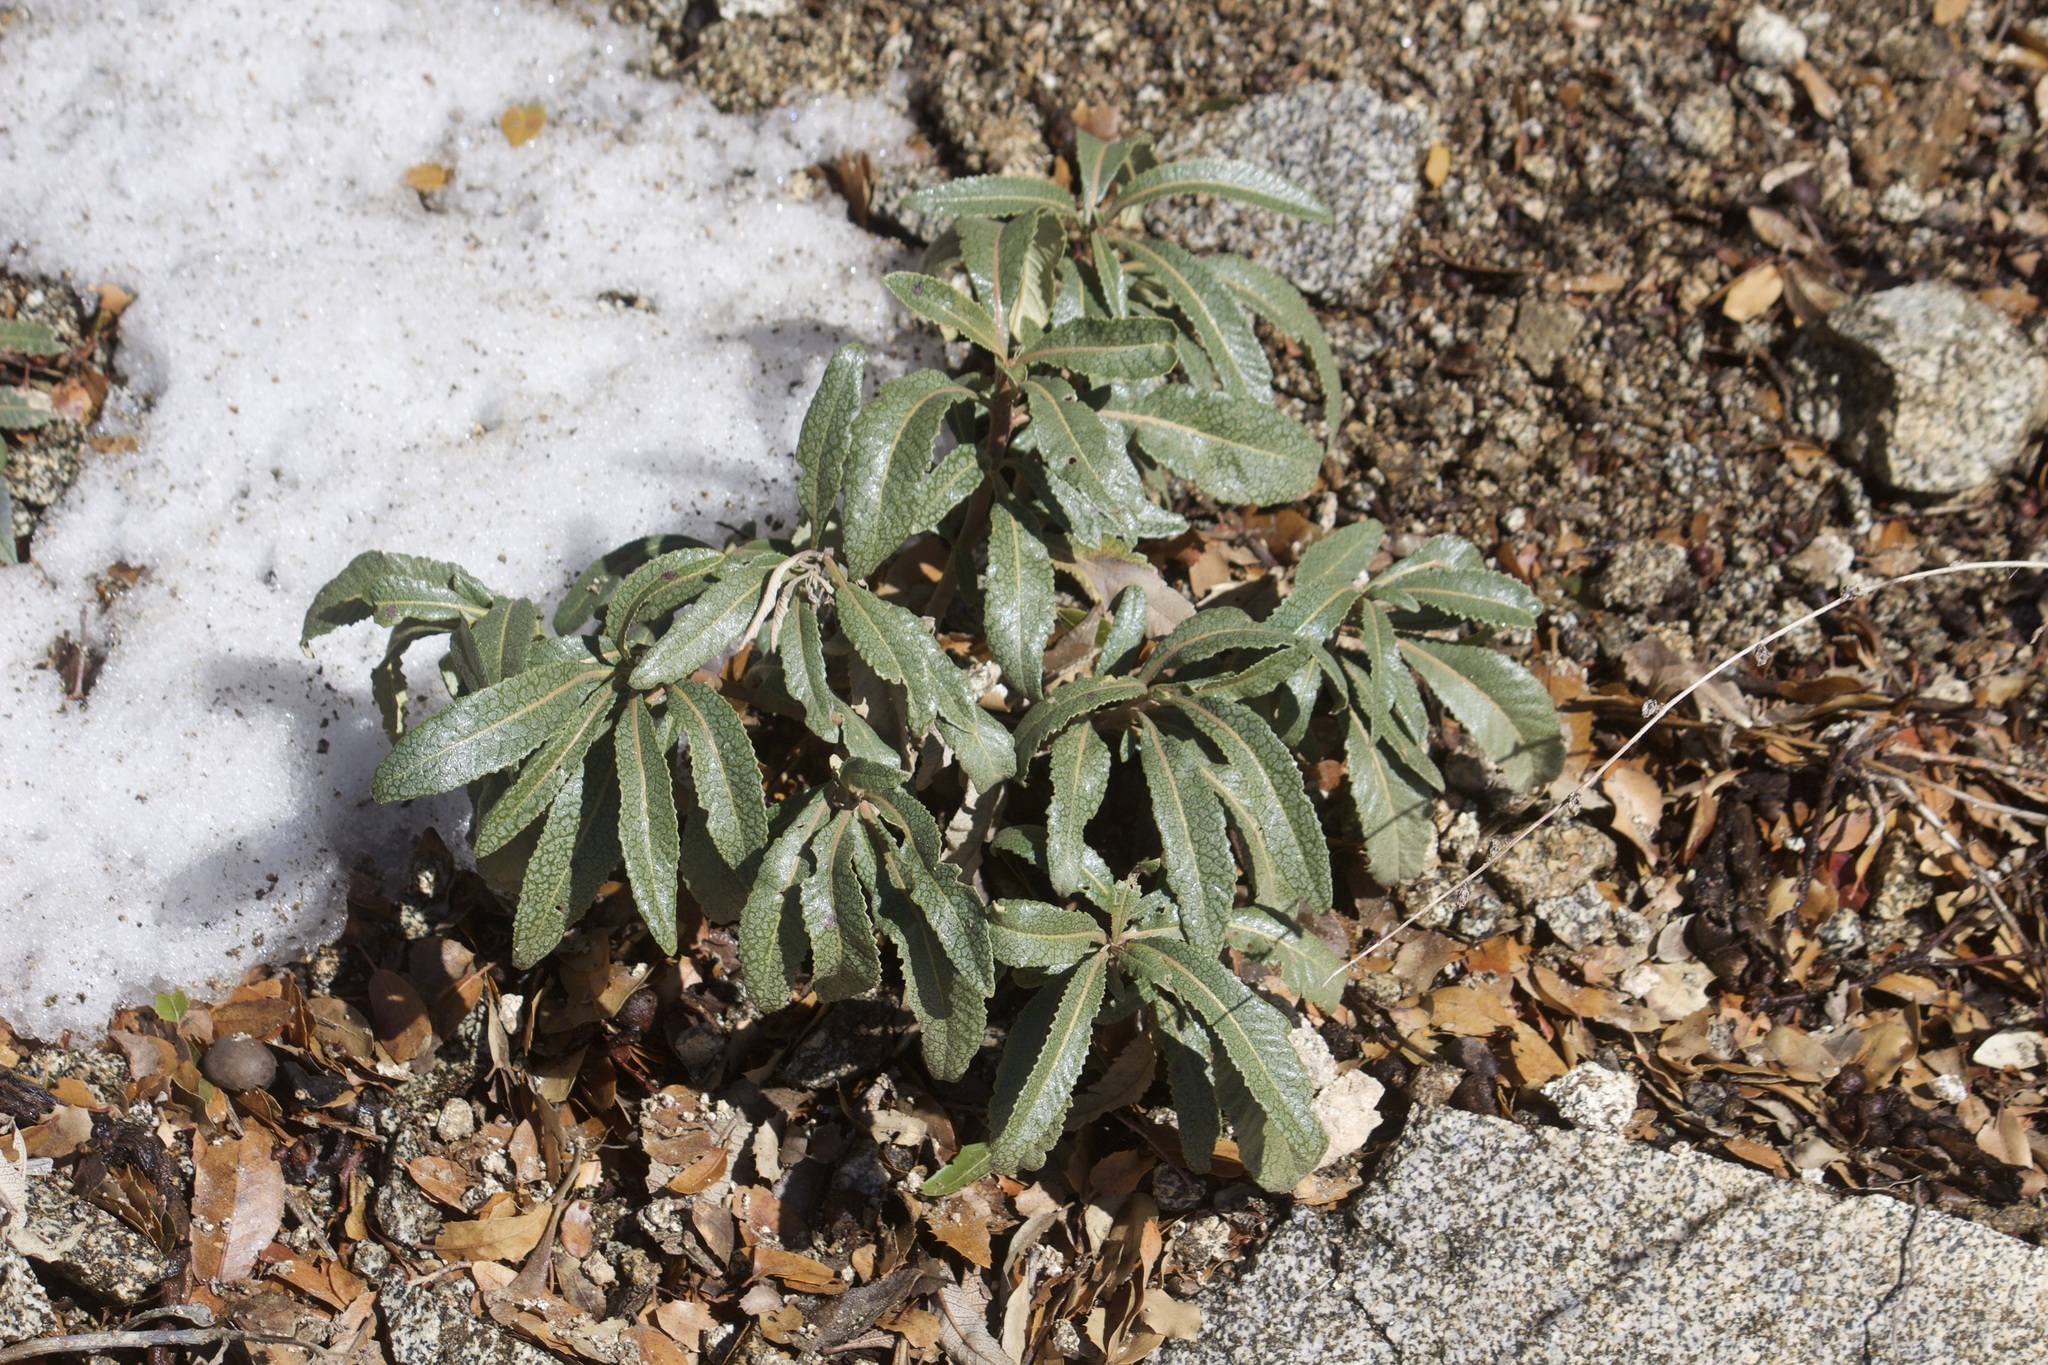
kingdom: Plantae
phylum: Tracheophyta
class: Magnoliopsida
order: Boraginales
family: Namaceae
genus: Eriodictyon
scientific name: Eriodictyon trichocalyx
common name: Hairy yerba-santa
